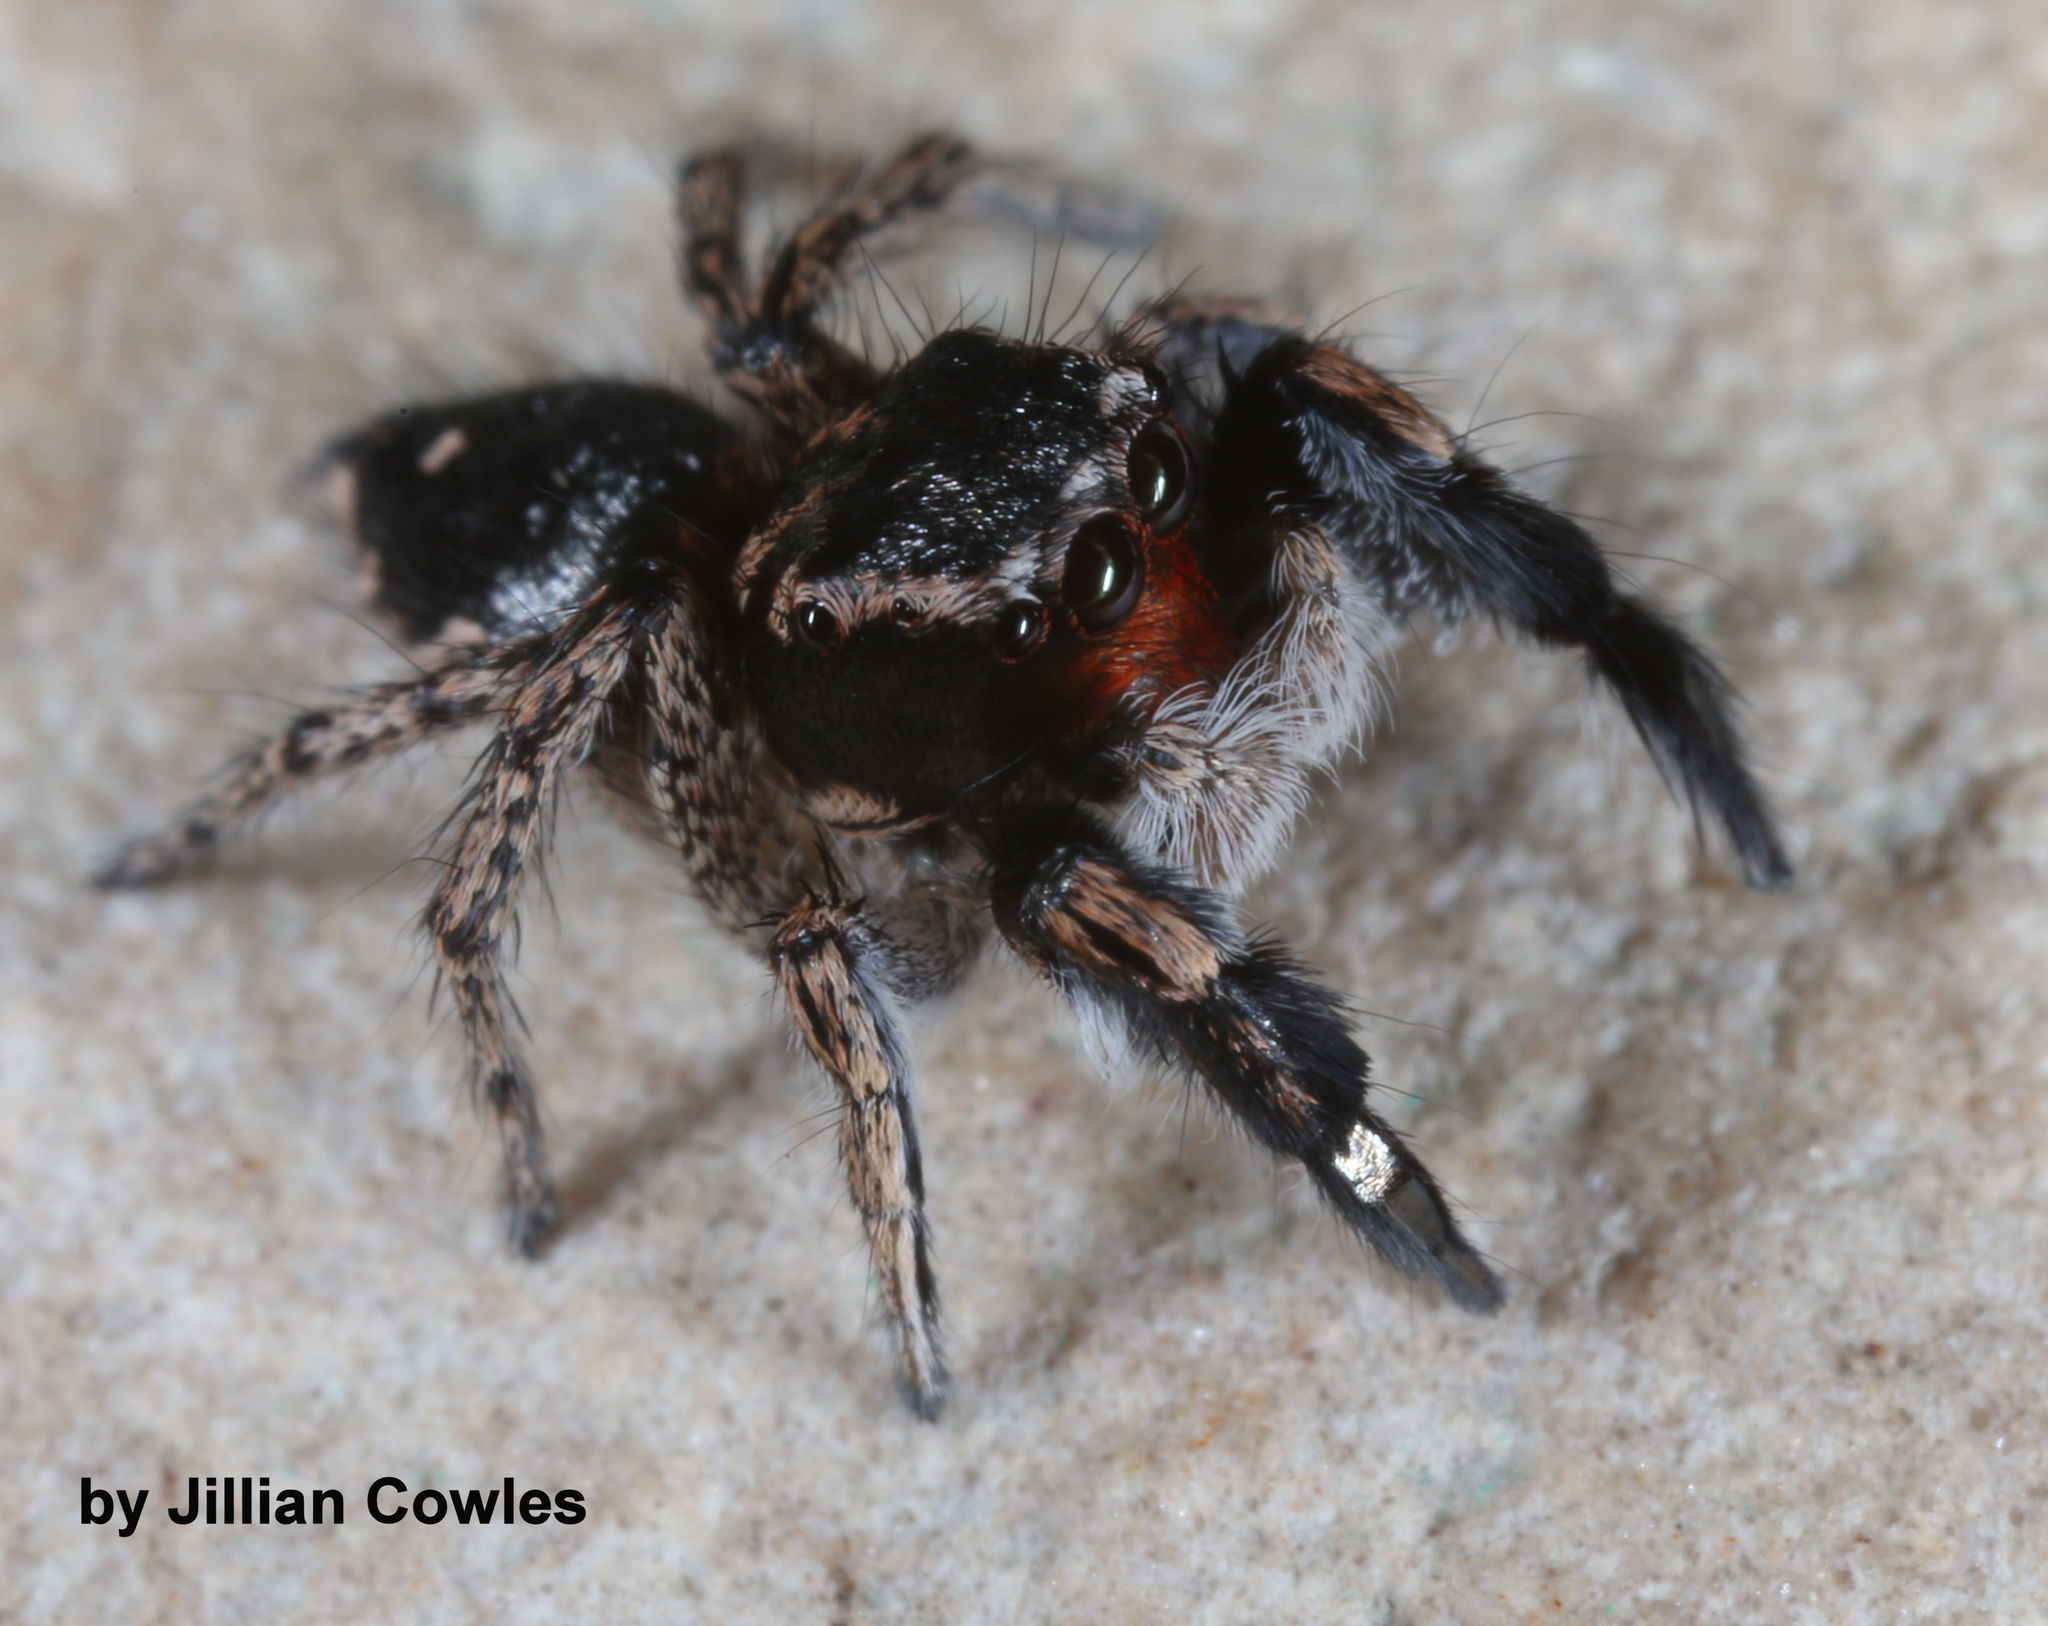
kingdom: Animalia
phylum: Arthropoda
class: Arachnida
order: Araneae
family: Salticidae
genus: Habronattus
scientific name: Habronattus hirsutus
